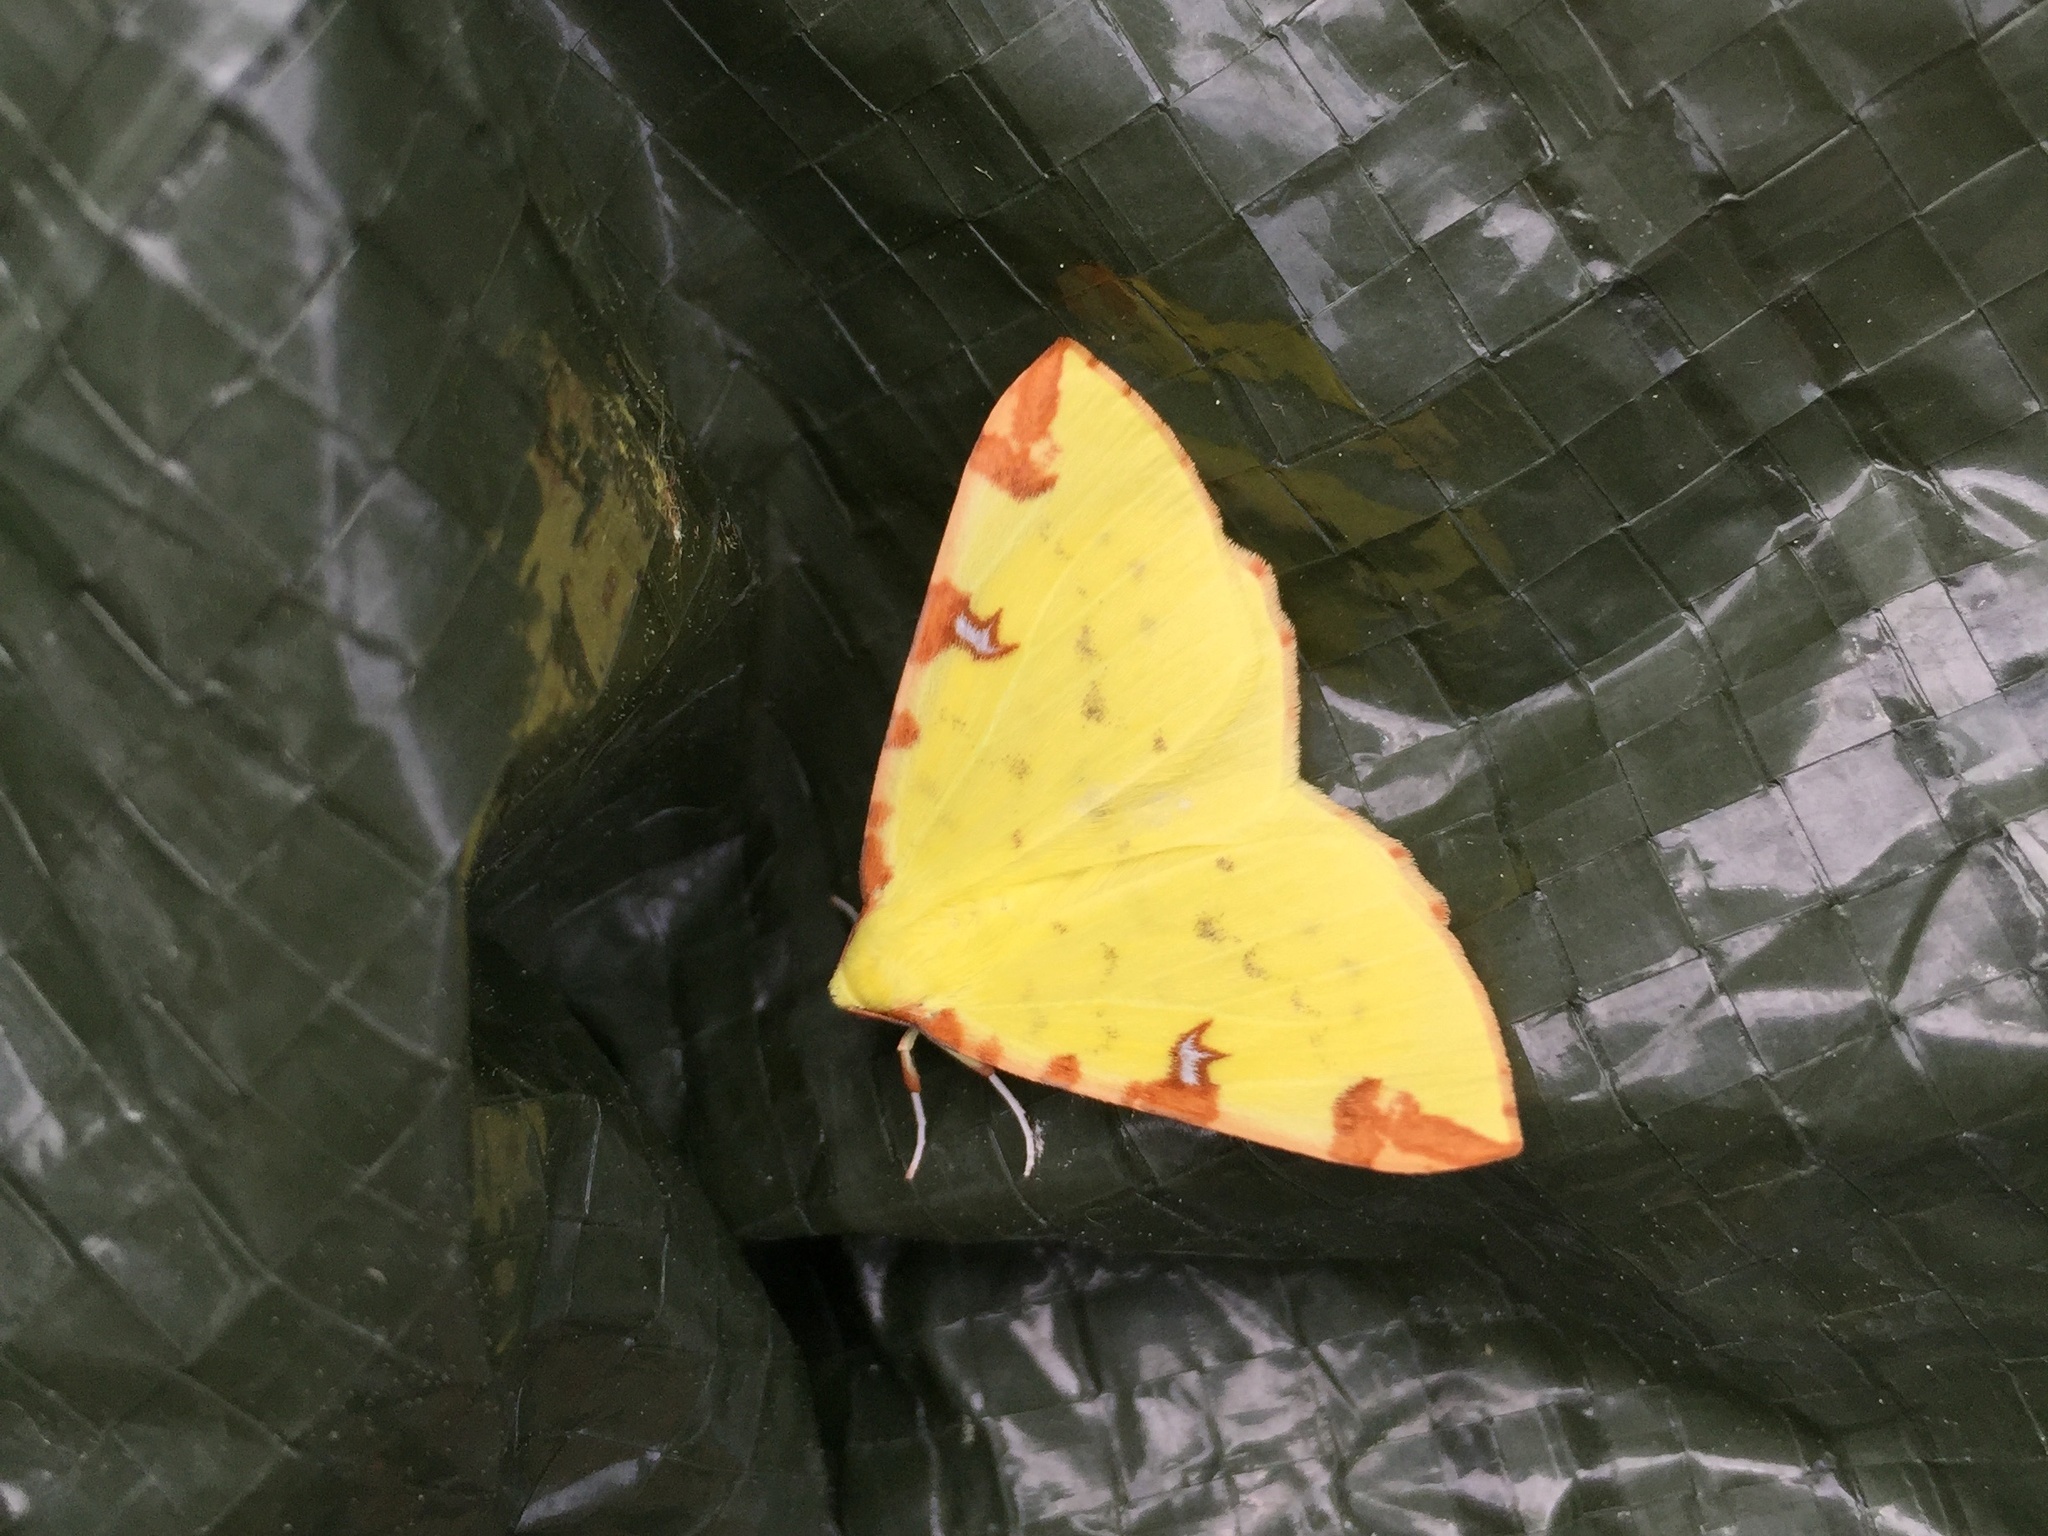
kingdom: Animalia
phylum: Arthropoda
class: Insecta
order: Lepidoptera
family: Geometridae
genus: Opisthograptis
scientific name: Opisthograptis luteolata
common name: Brimstone moth
